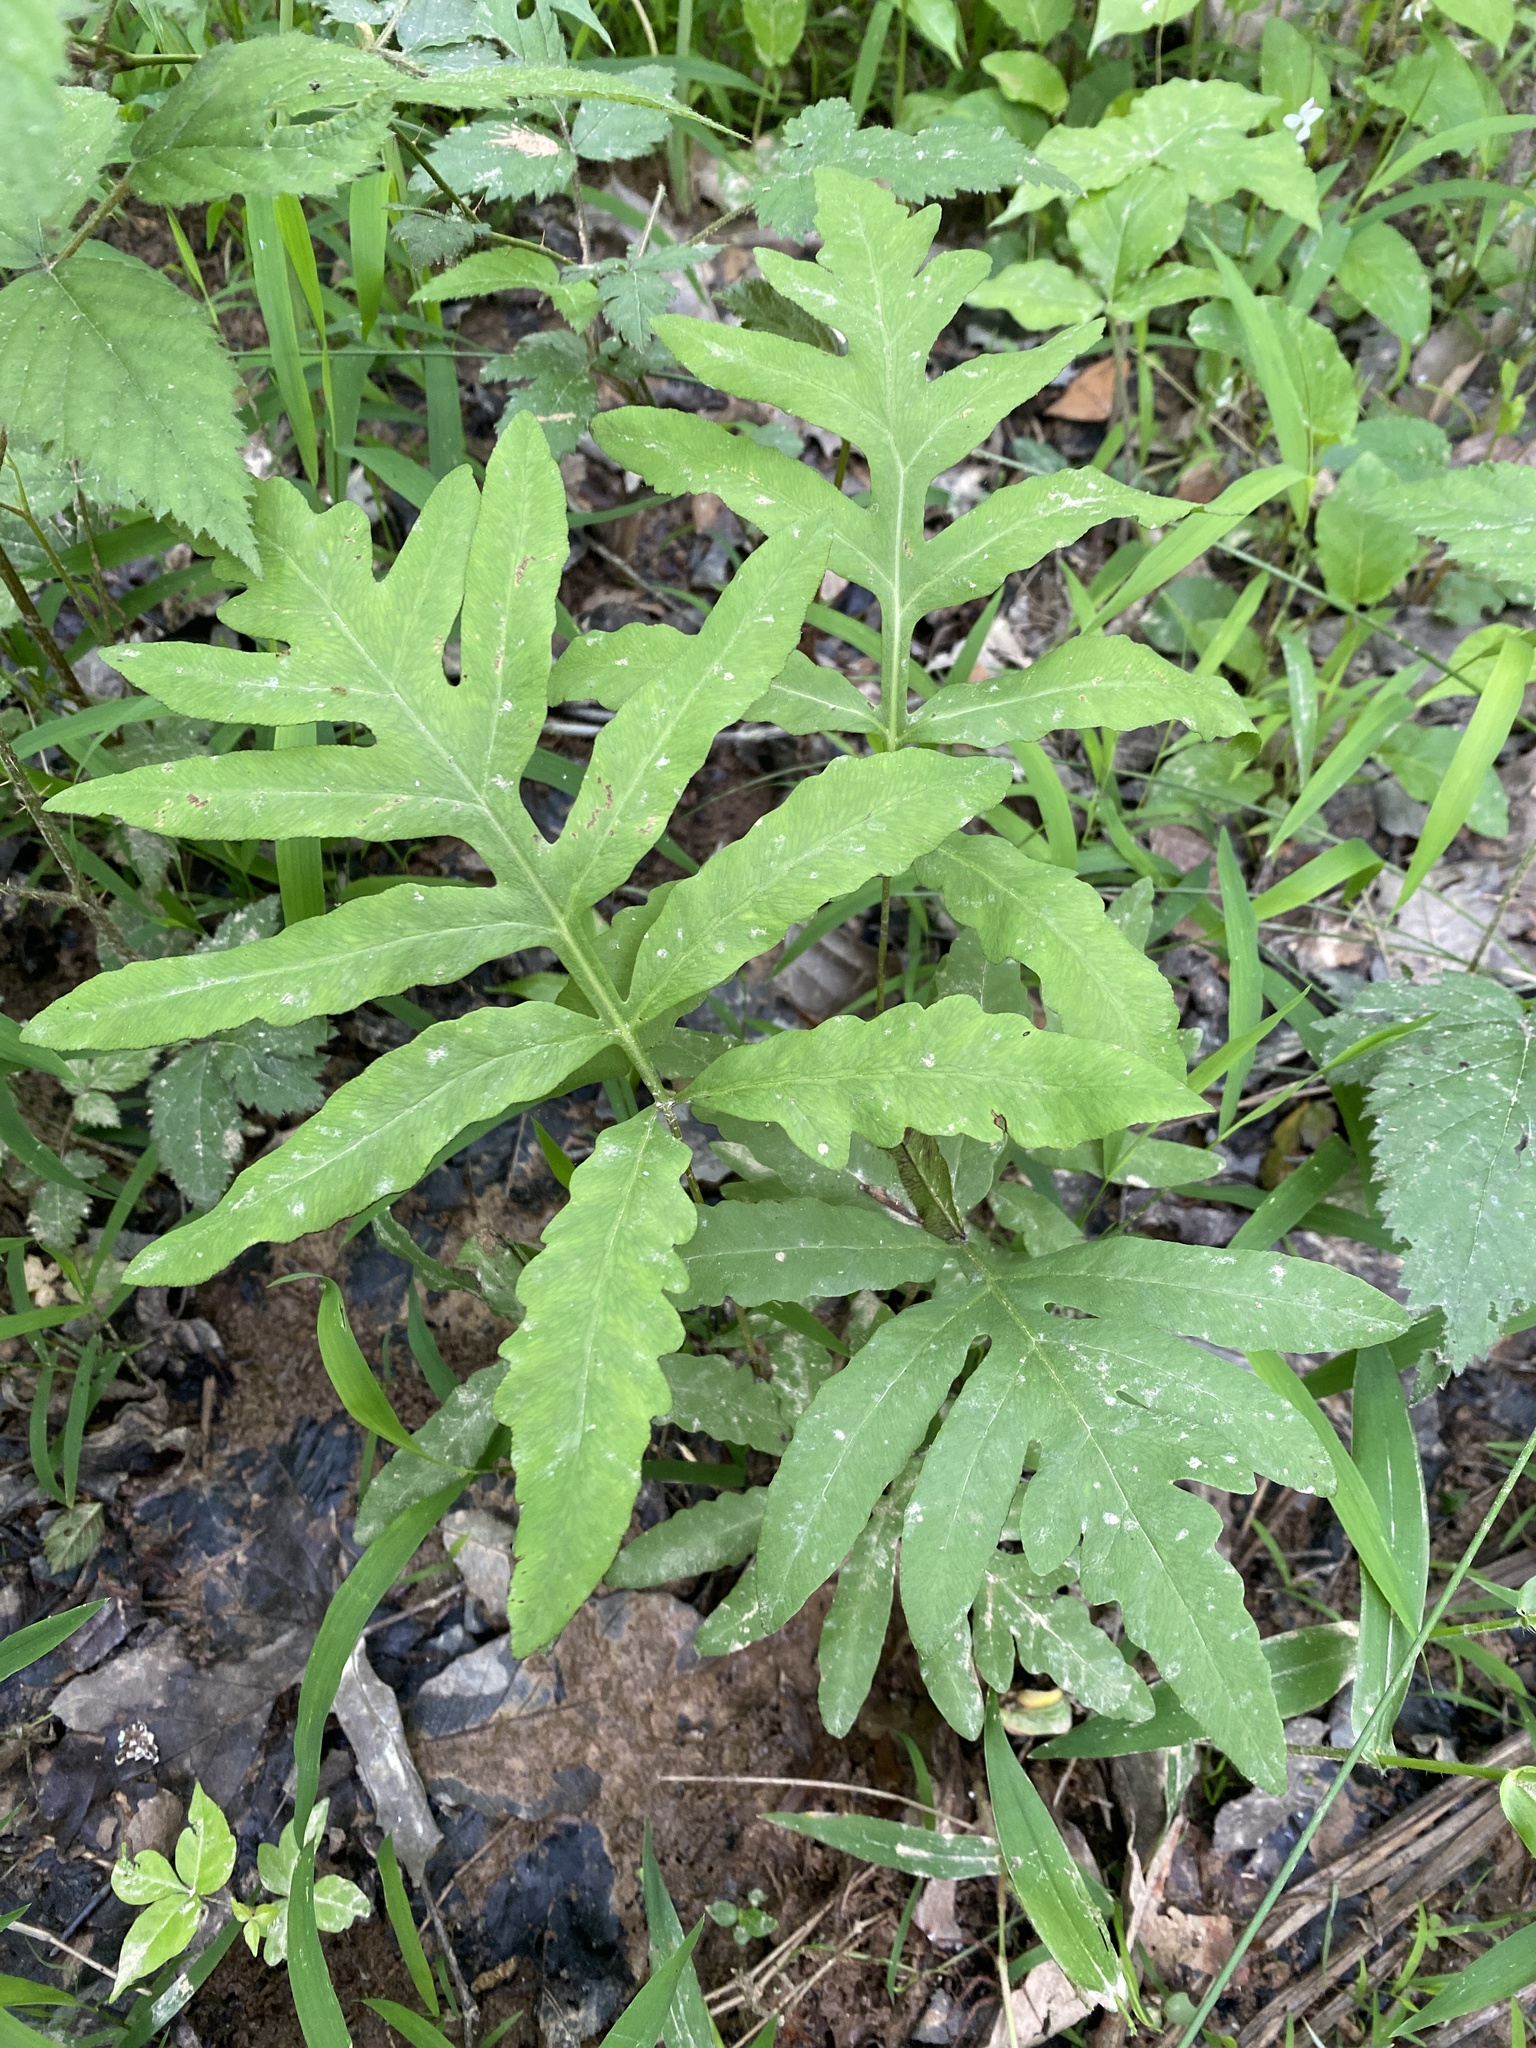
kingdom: Plantae
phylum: Tracheophyta
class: Polypodiopsida
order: Polypodiales
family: Onocleaceae
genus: Onoclea
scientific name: Onoclea sensibilis
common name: Sensitive fern
